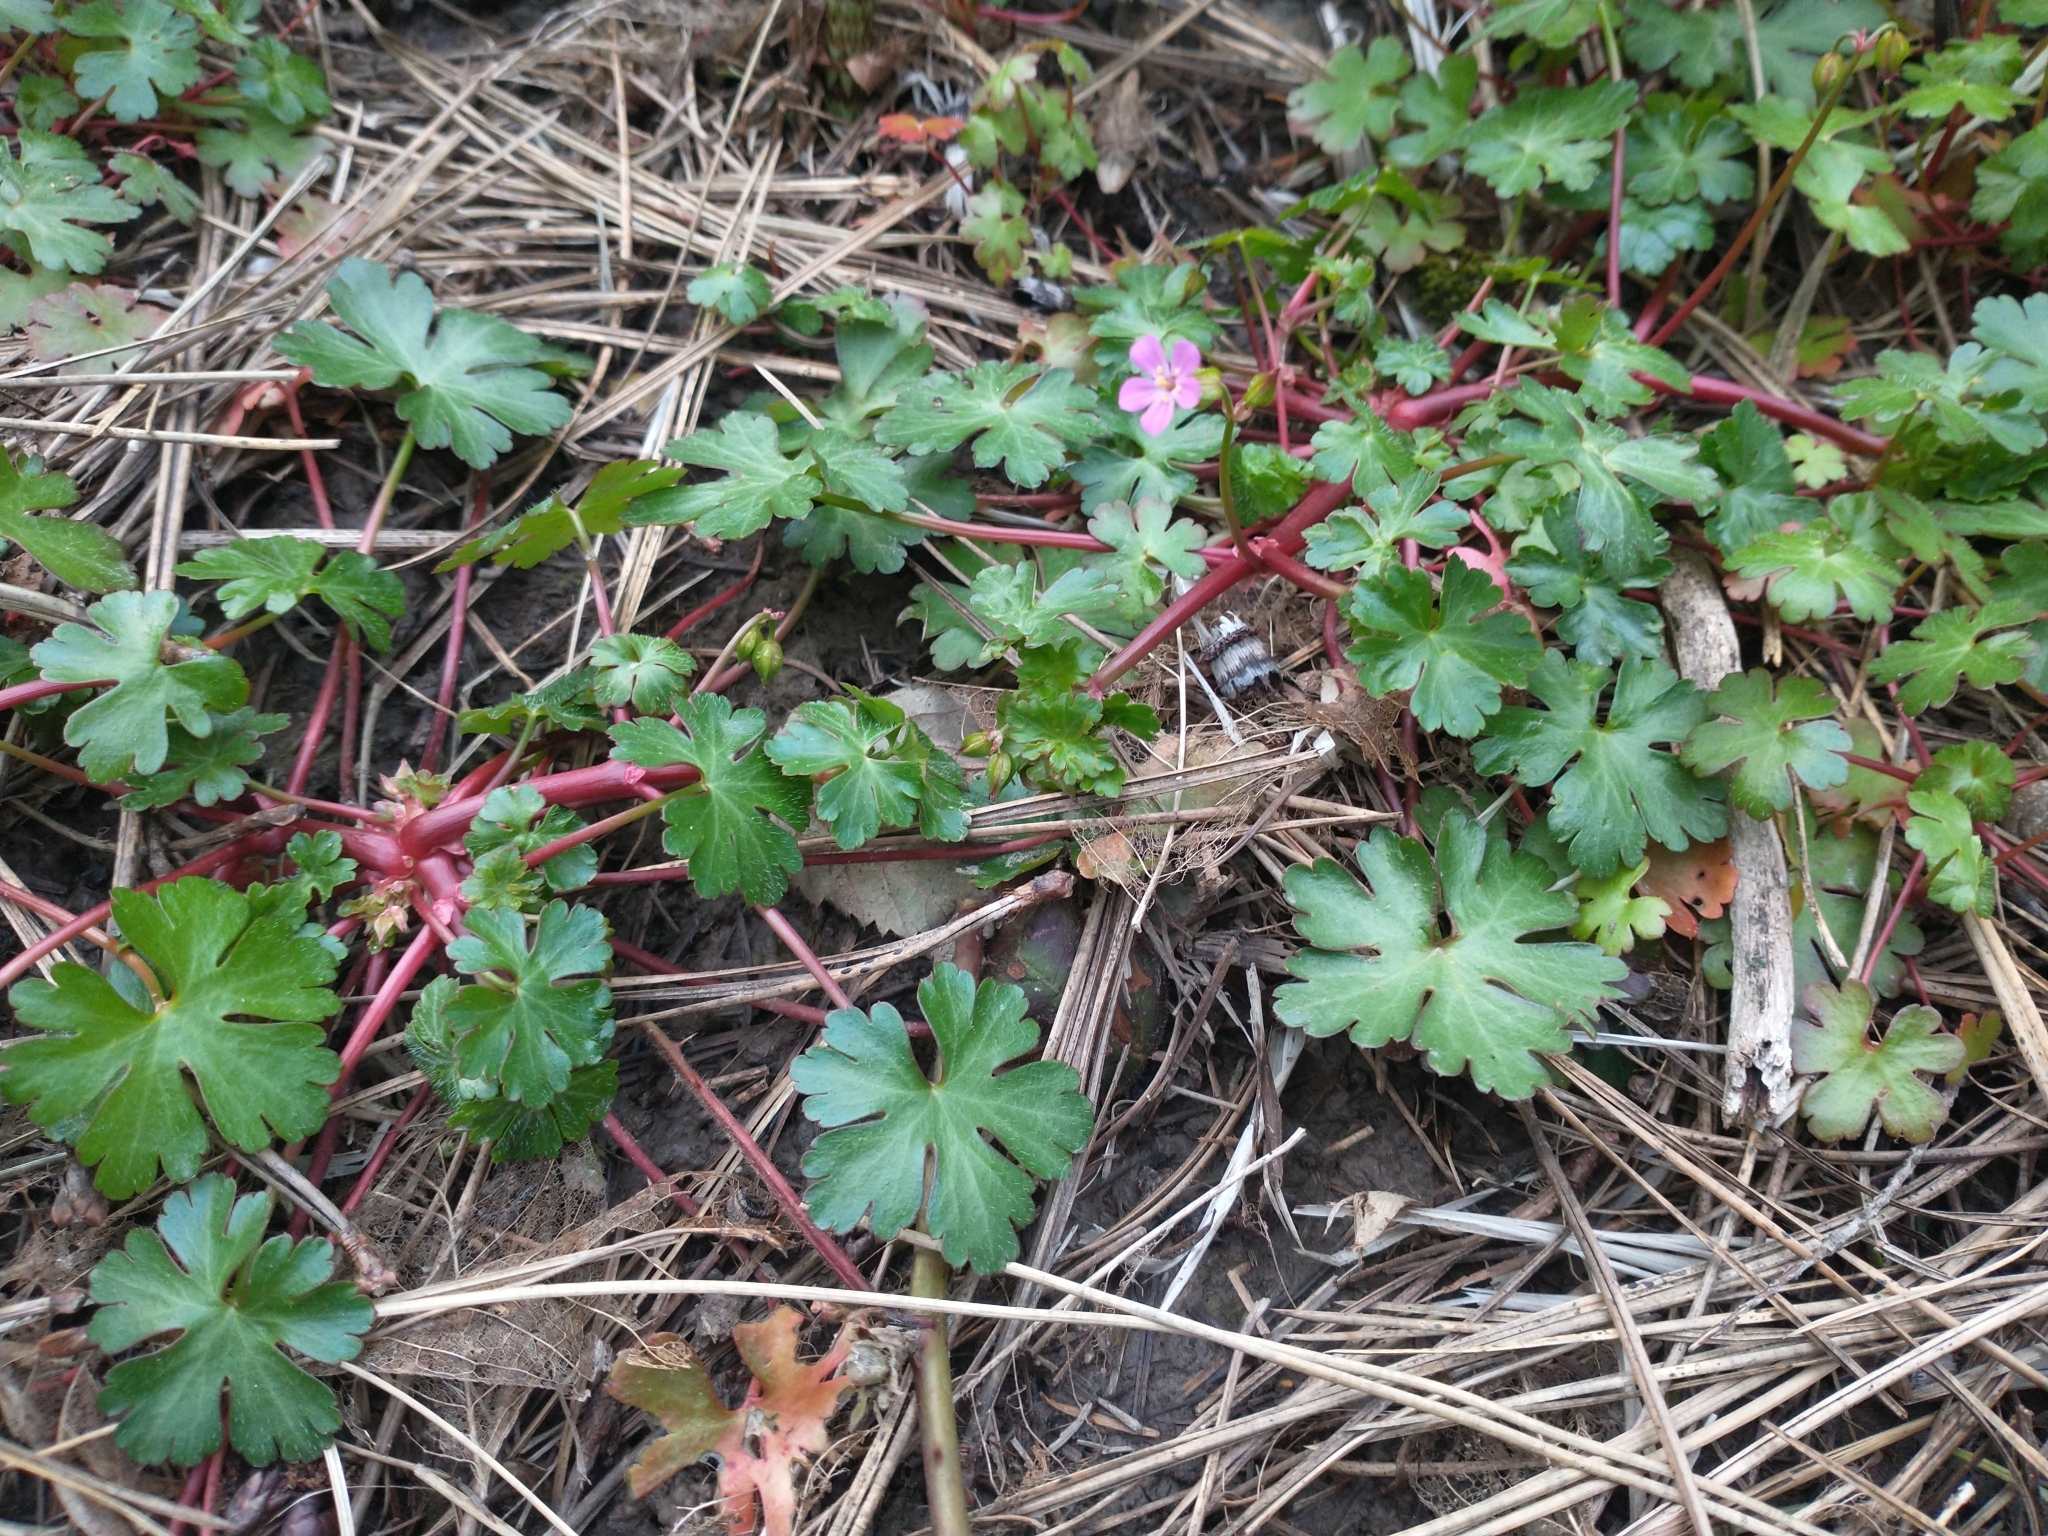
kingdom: Plantae
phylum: Tracheophyta
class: Magnoliopsida
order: Geraniales
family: Geraniaceae
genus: Geranium
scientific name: Geranium lucidum
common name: Shining crane's-bill
